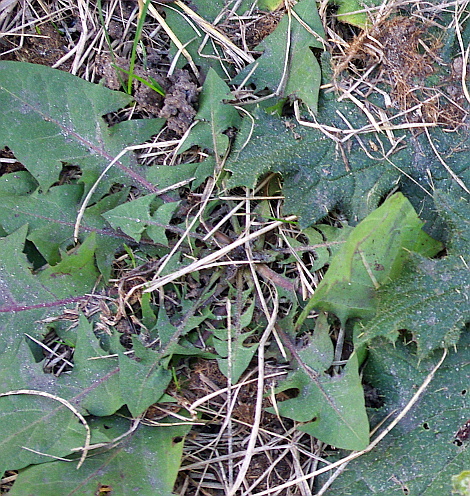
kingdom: Plantae
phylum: Tracheophyta
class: Magnoliopsida
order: Asterales
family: Asteraceae
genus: Taraxacum
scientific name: Taraxacum officinale
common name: Common dandelion
